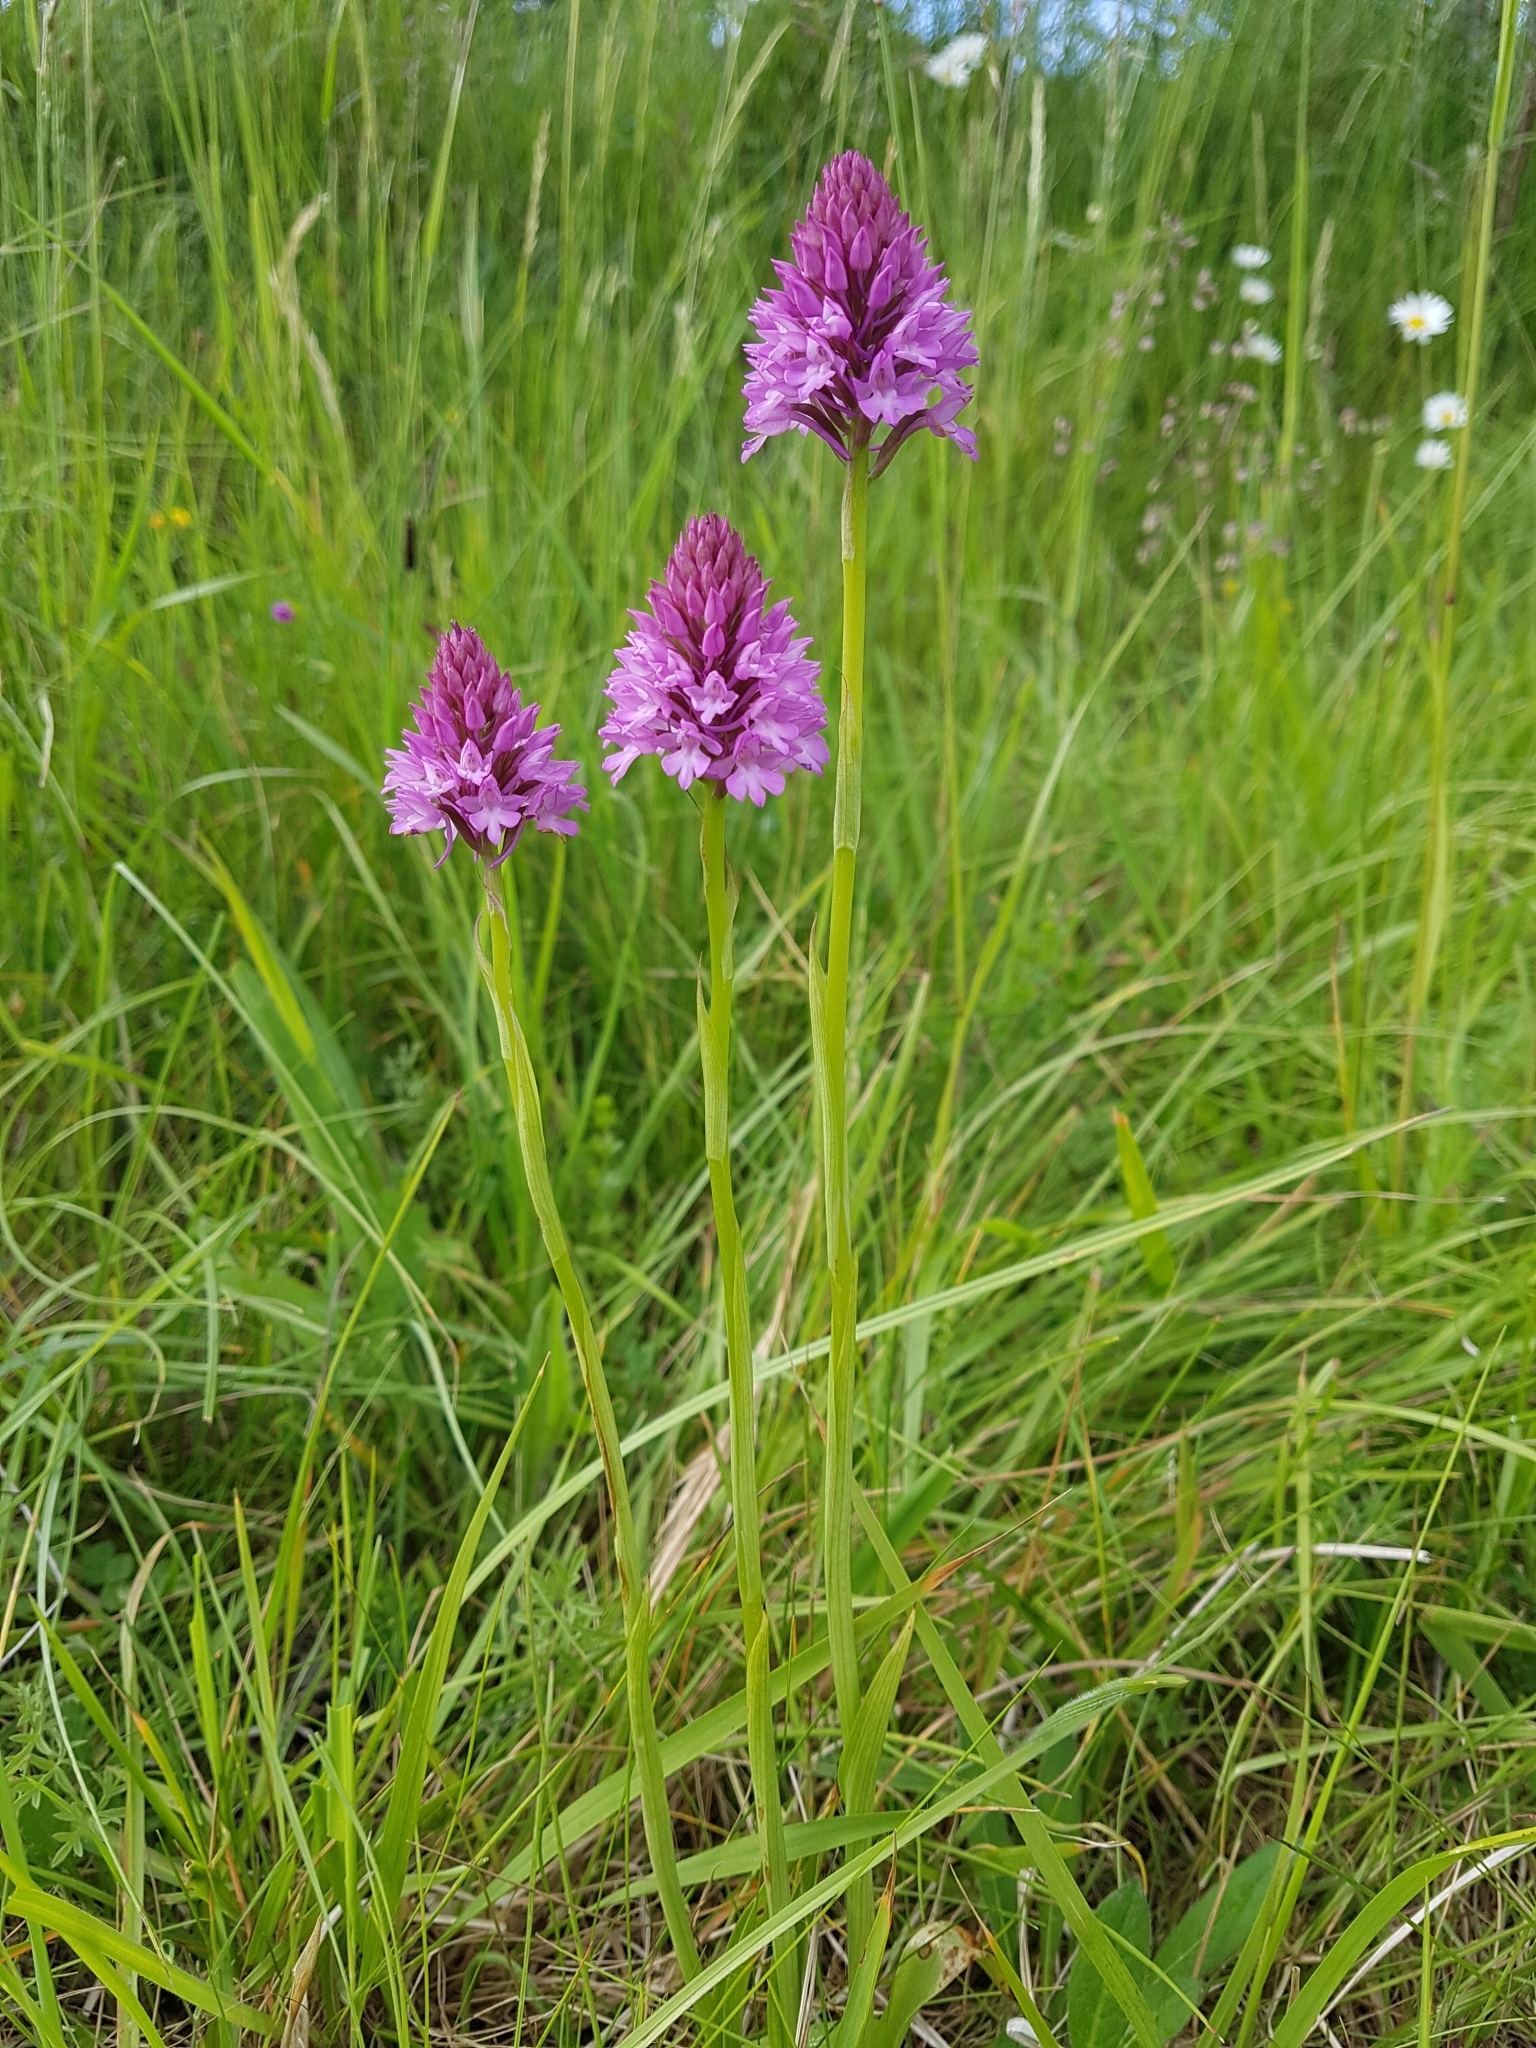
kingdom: Plantae
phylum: Tracheophyta
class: Liliopsida
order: Asparagales
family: Orchidaceae
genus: Anacamptis
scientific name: Anacamptis pyramidalis
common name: Pyramidal orchid
